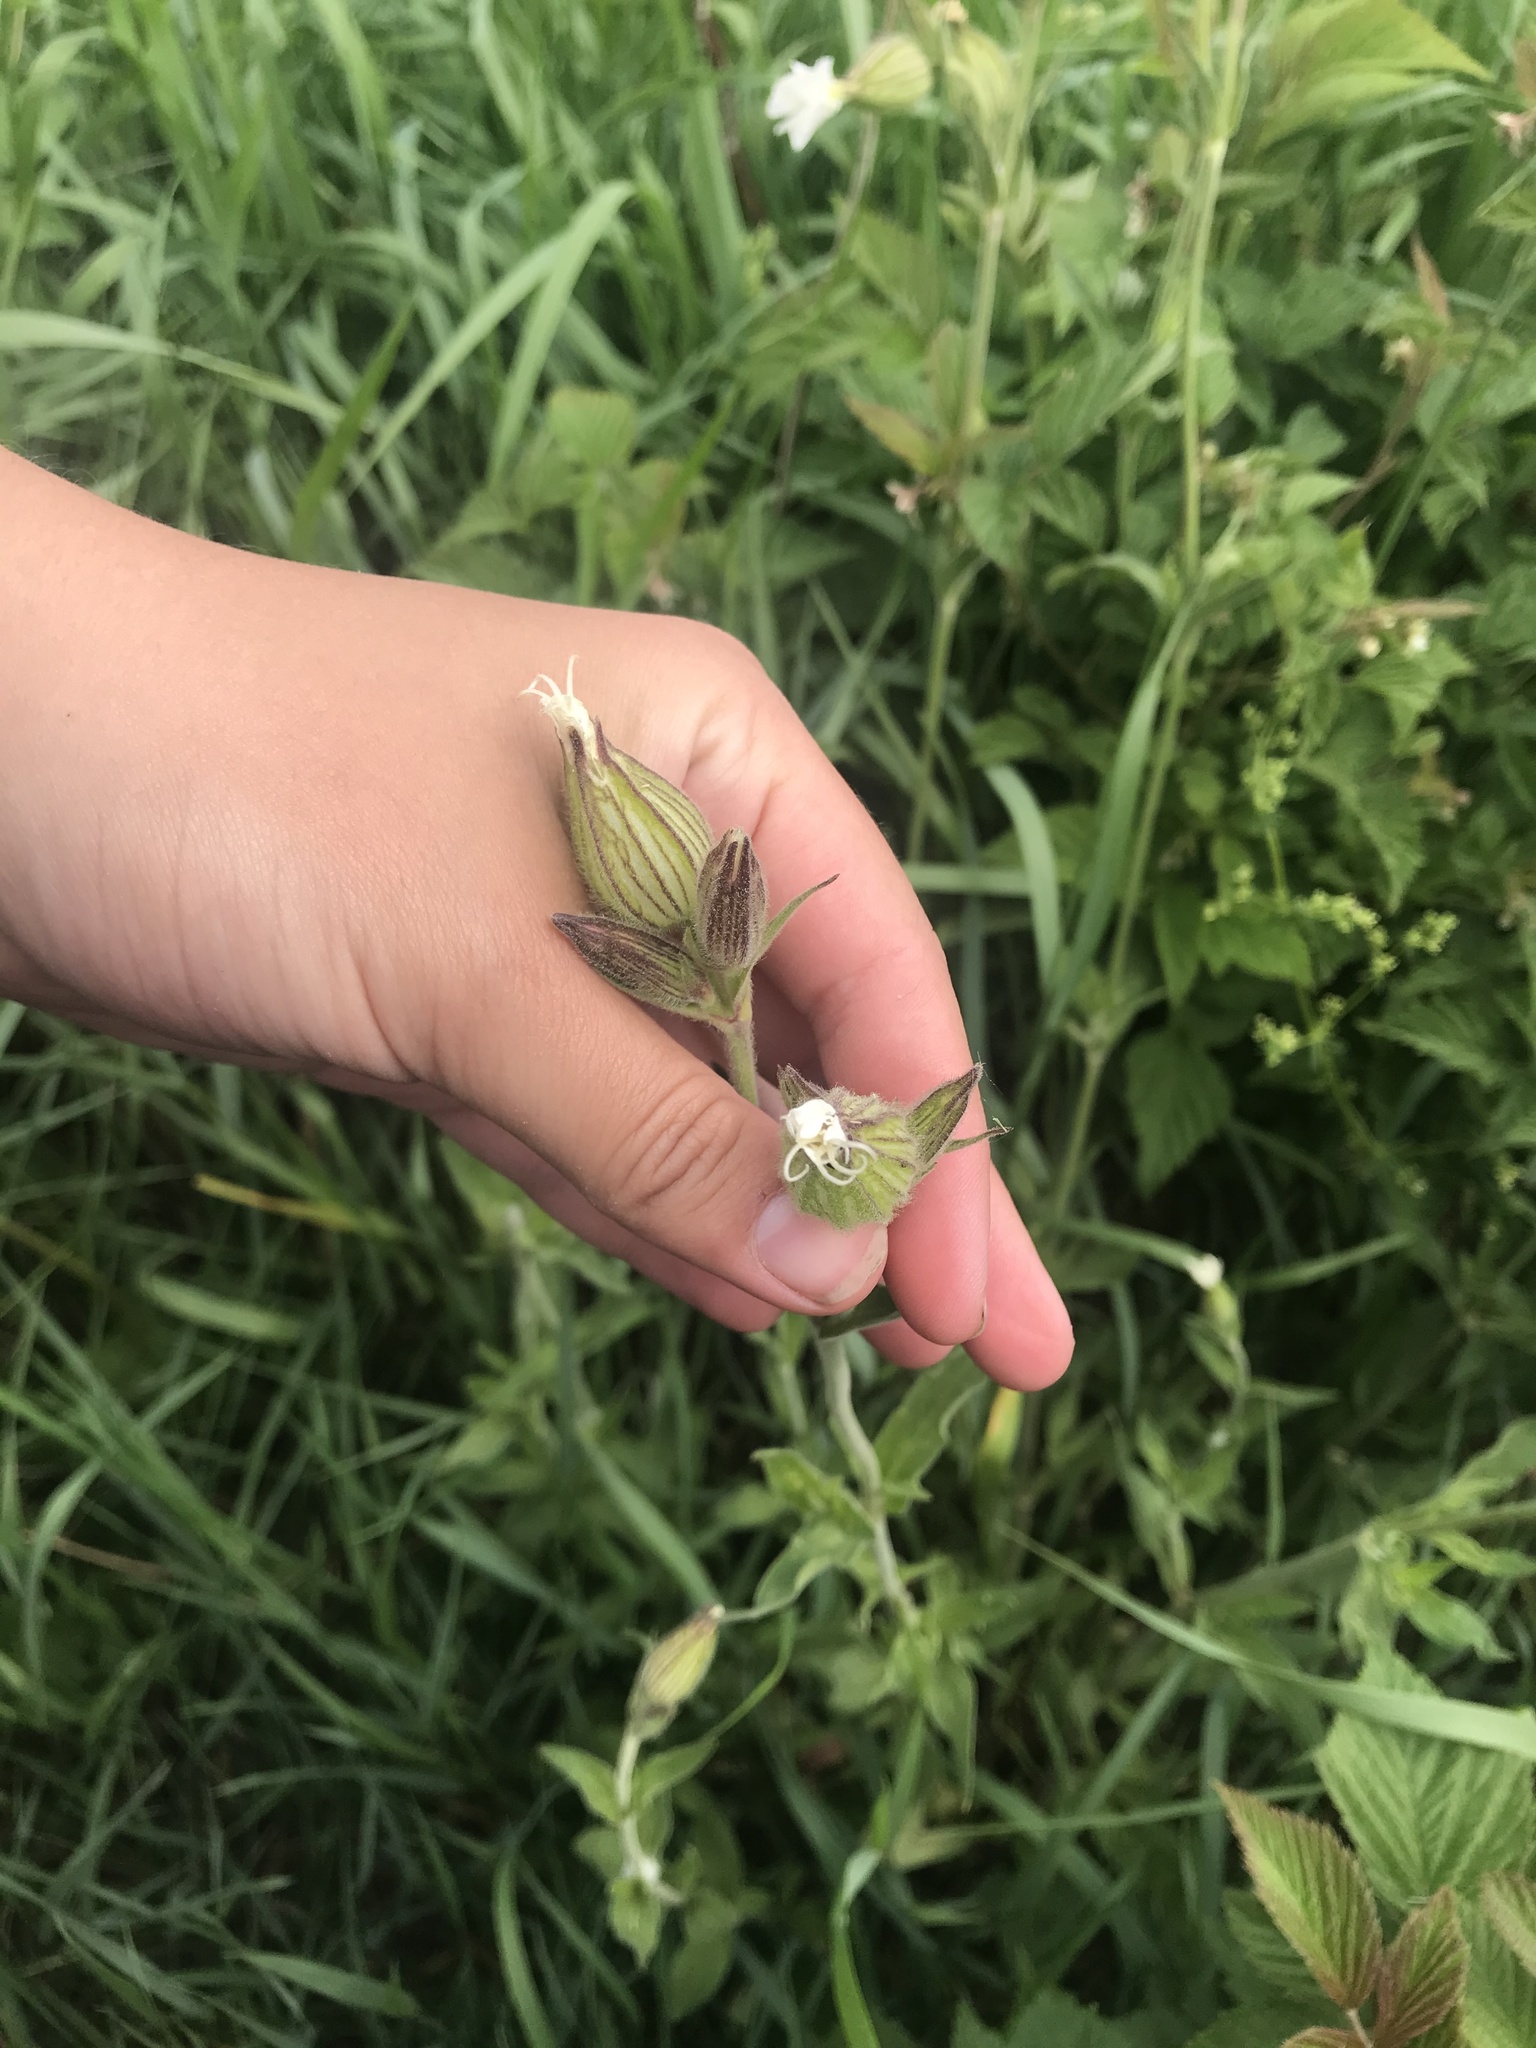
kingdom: Plantae
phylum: Tracheophyta
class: Magnoliopsida
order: Caryophyllales
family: Caryophyllaceae
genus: Silene
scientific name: Silene latifolia
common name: White campion
